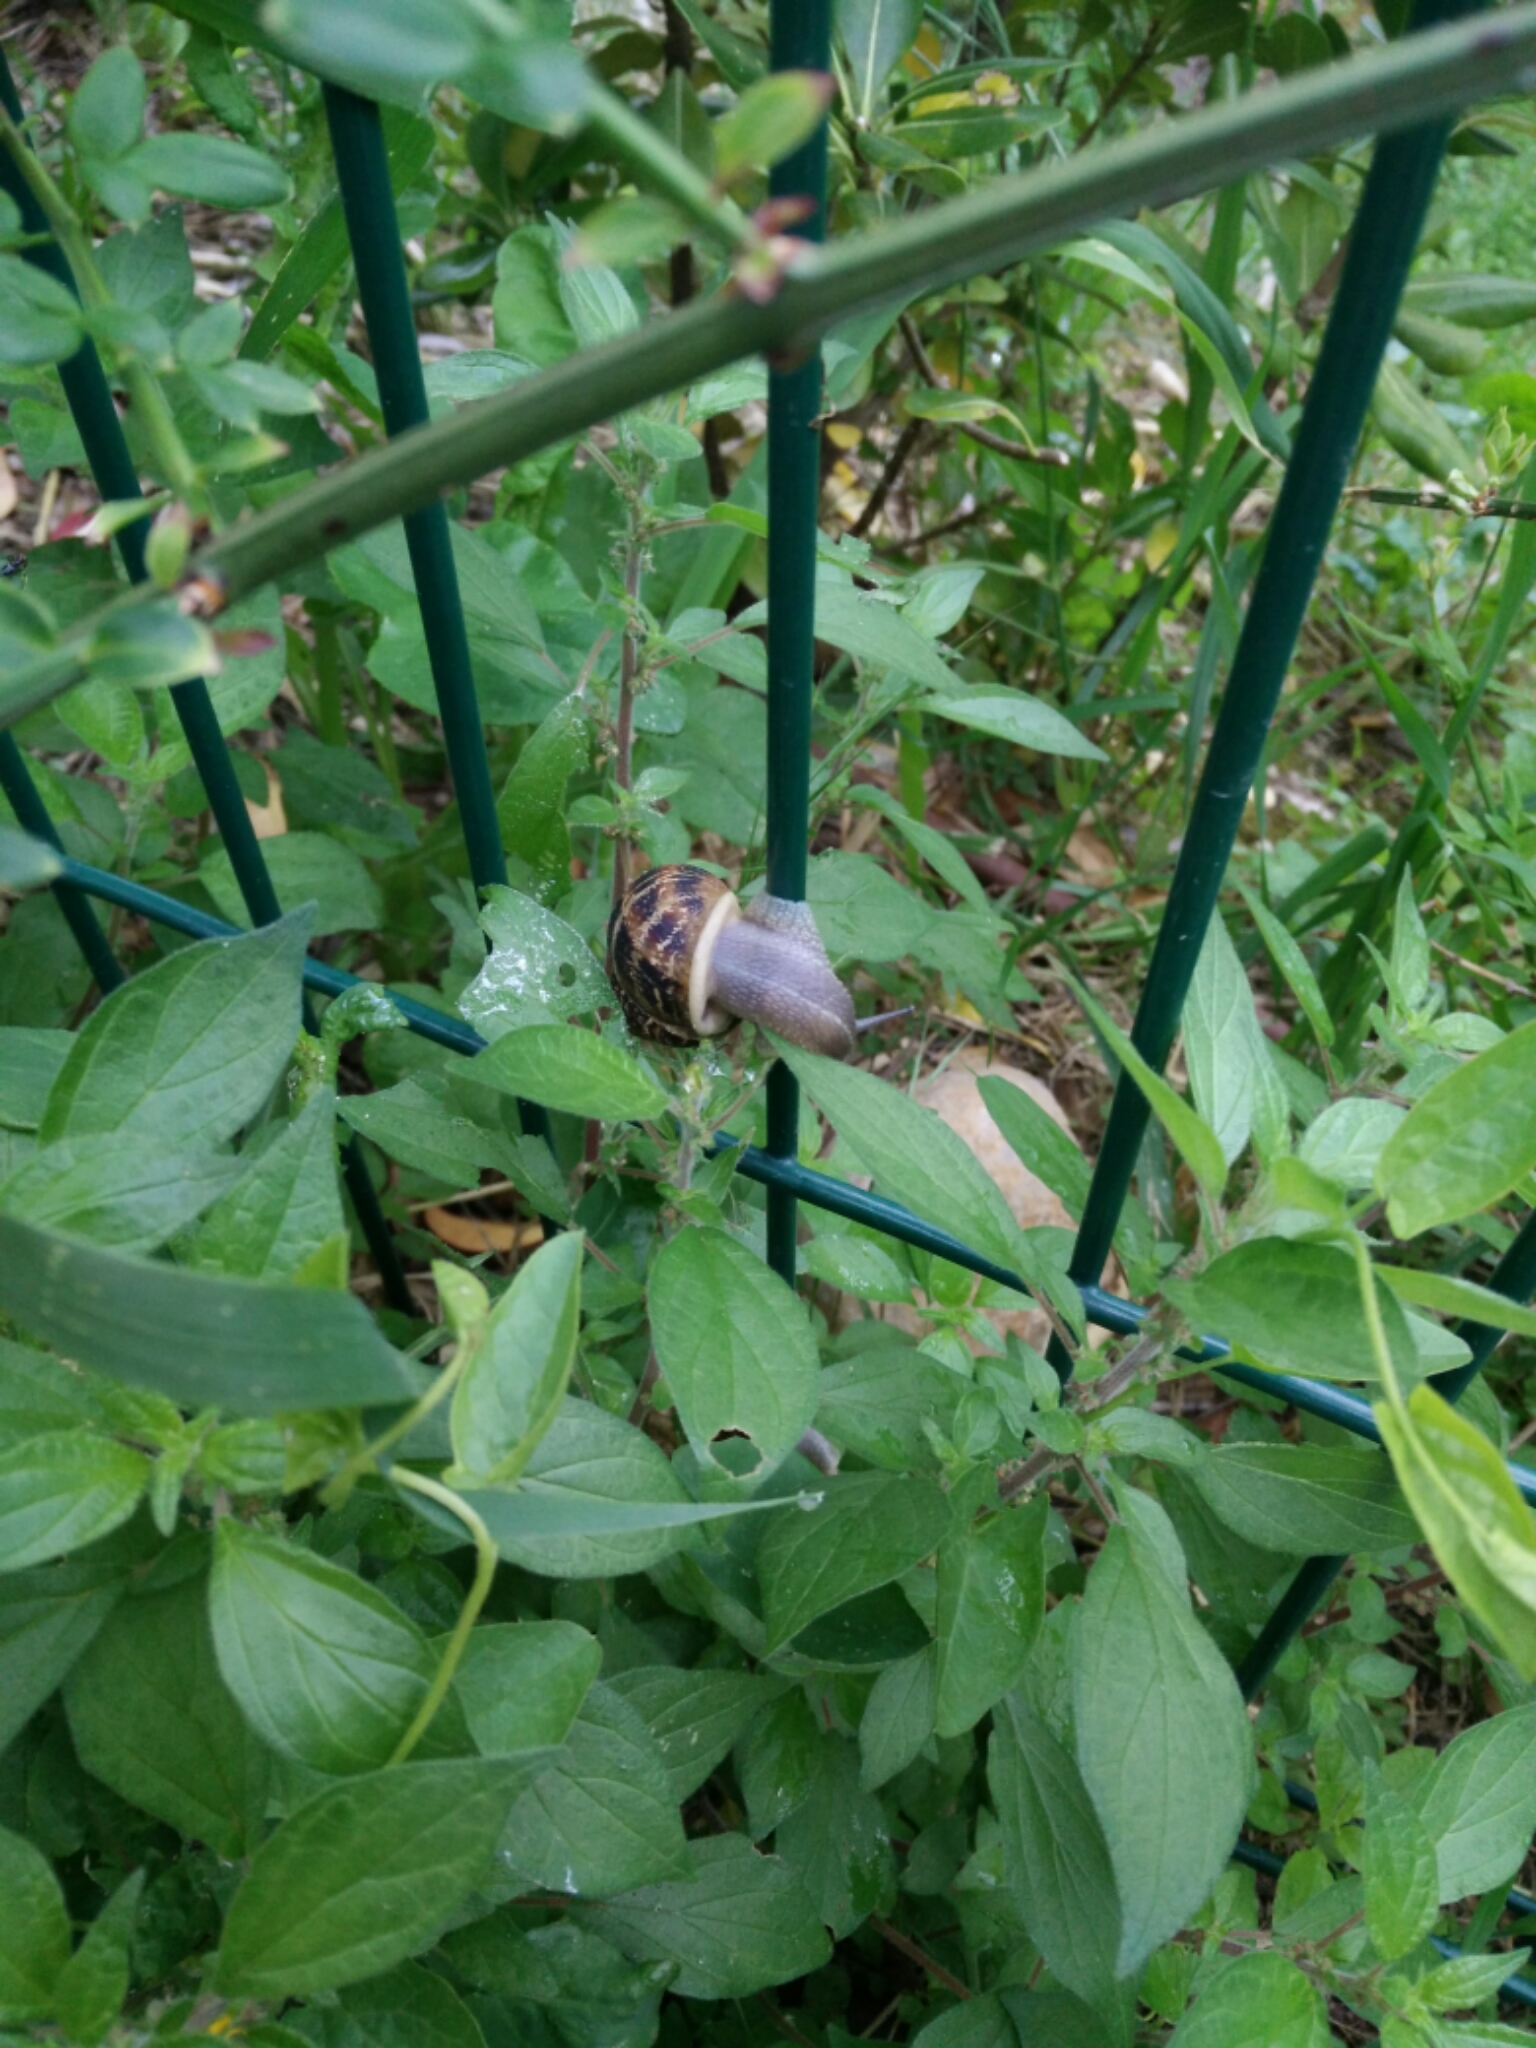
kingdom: Animalia
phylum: Mollusca
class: Gastropoda
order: Stylommatophora
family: Helicidae
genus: Cornu
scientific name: Cornu aspersum
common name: Brown garden snail
